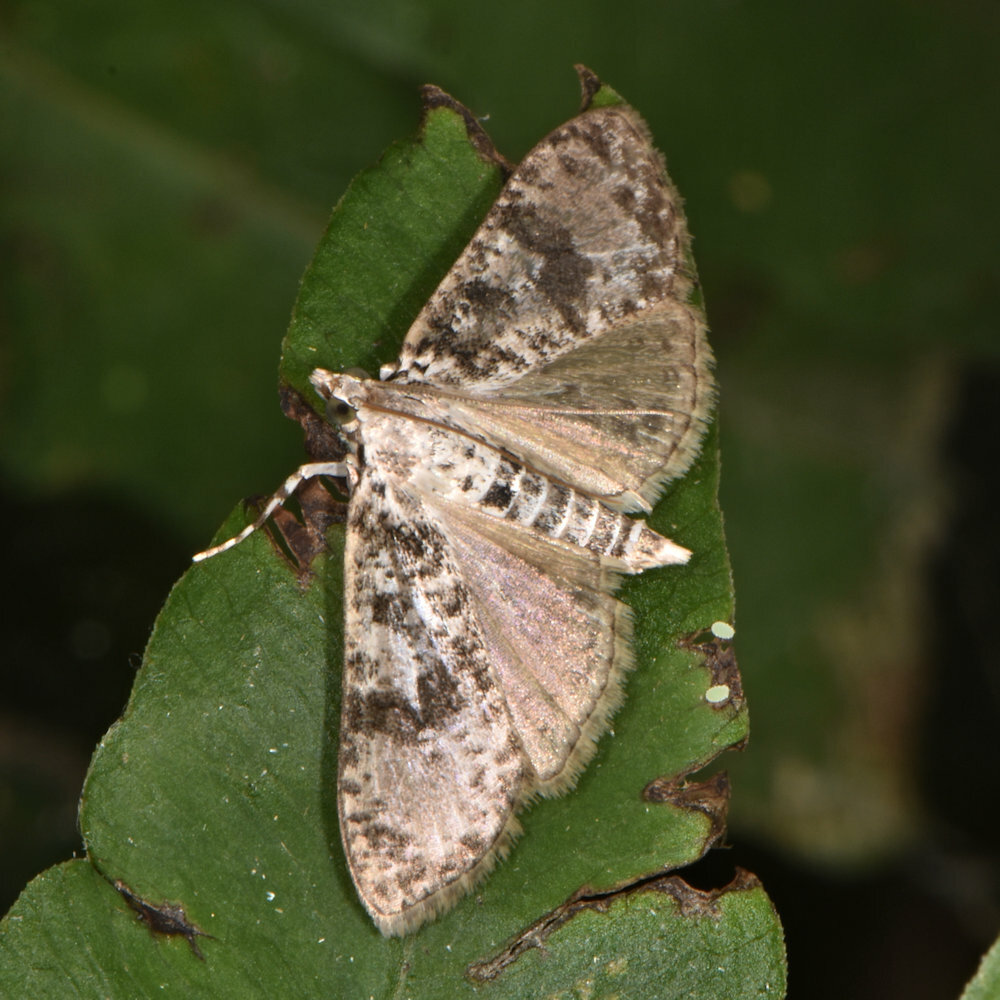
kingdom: Animalia
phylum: Arthropoda
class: Insecta
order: Lepidoptera
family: Crambidae
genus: Palpita
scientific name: Palpita magniferalis
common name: Splendid palpita moth
